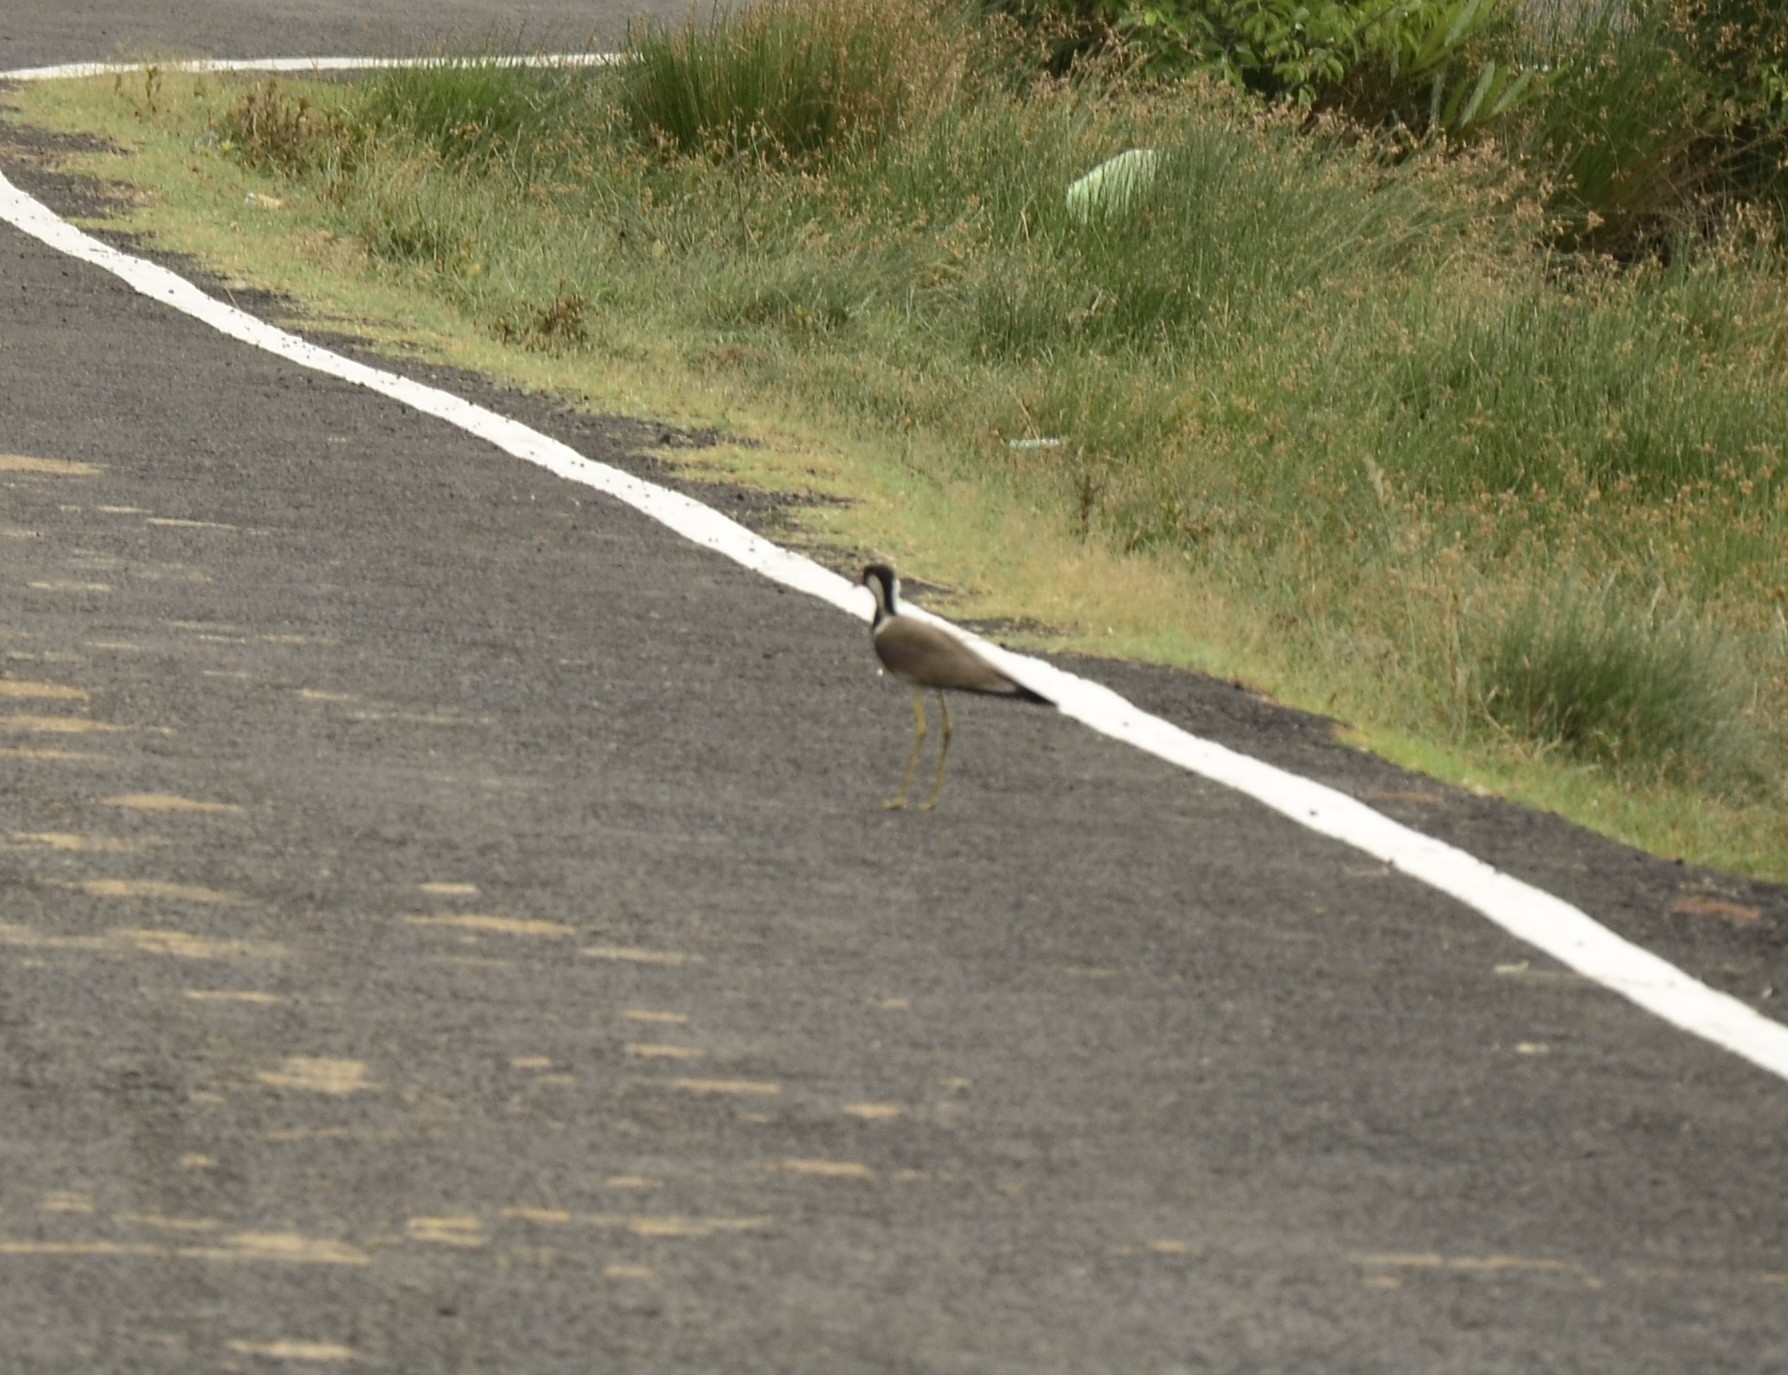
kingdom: Animalia
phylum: Chordata
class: Aves
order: Charadriiformes
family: Charadriidae
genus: Vanellus
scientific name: Vanellus indicus
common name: Red-wattled lapwing
